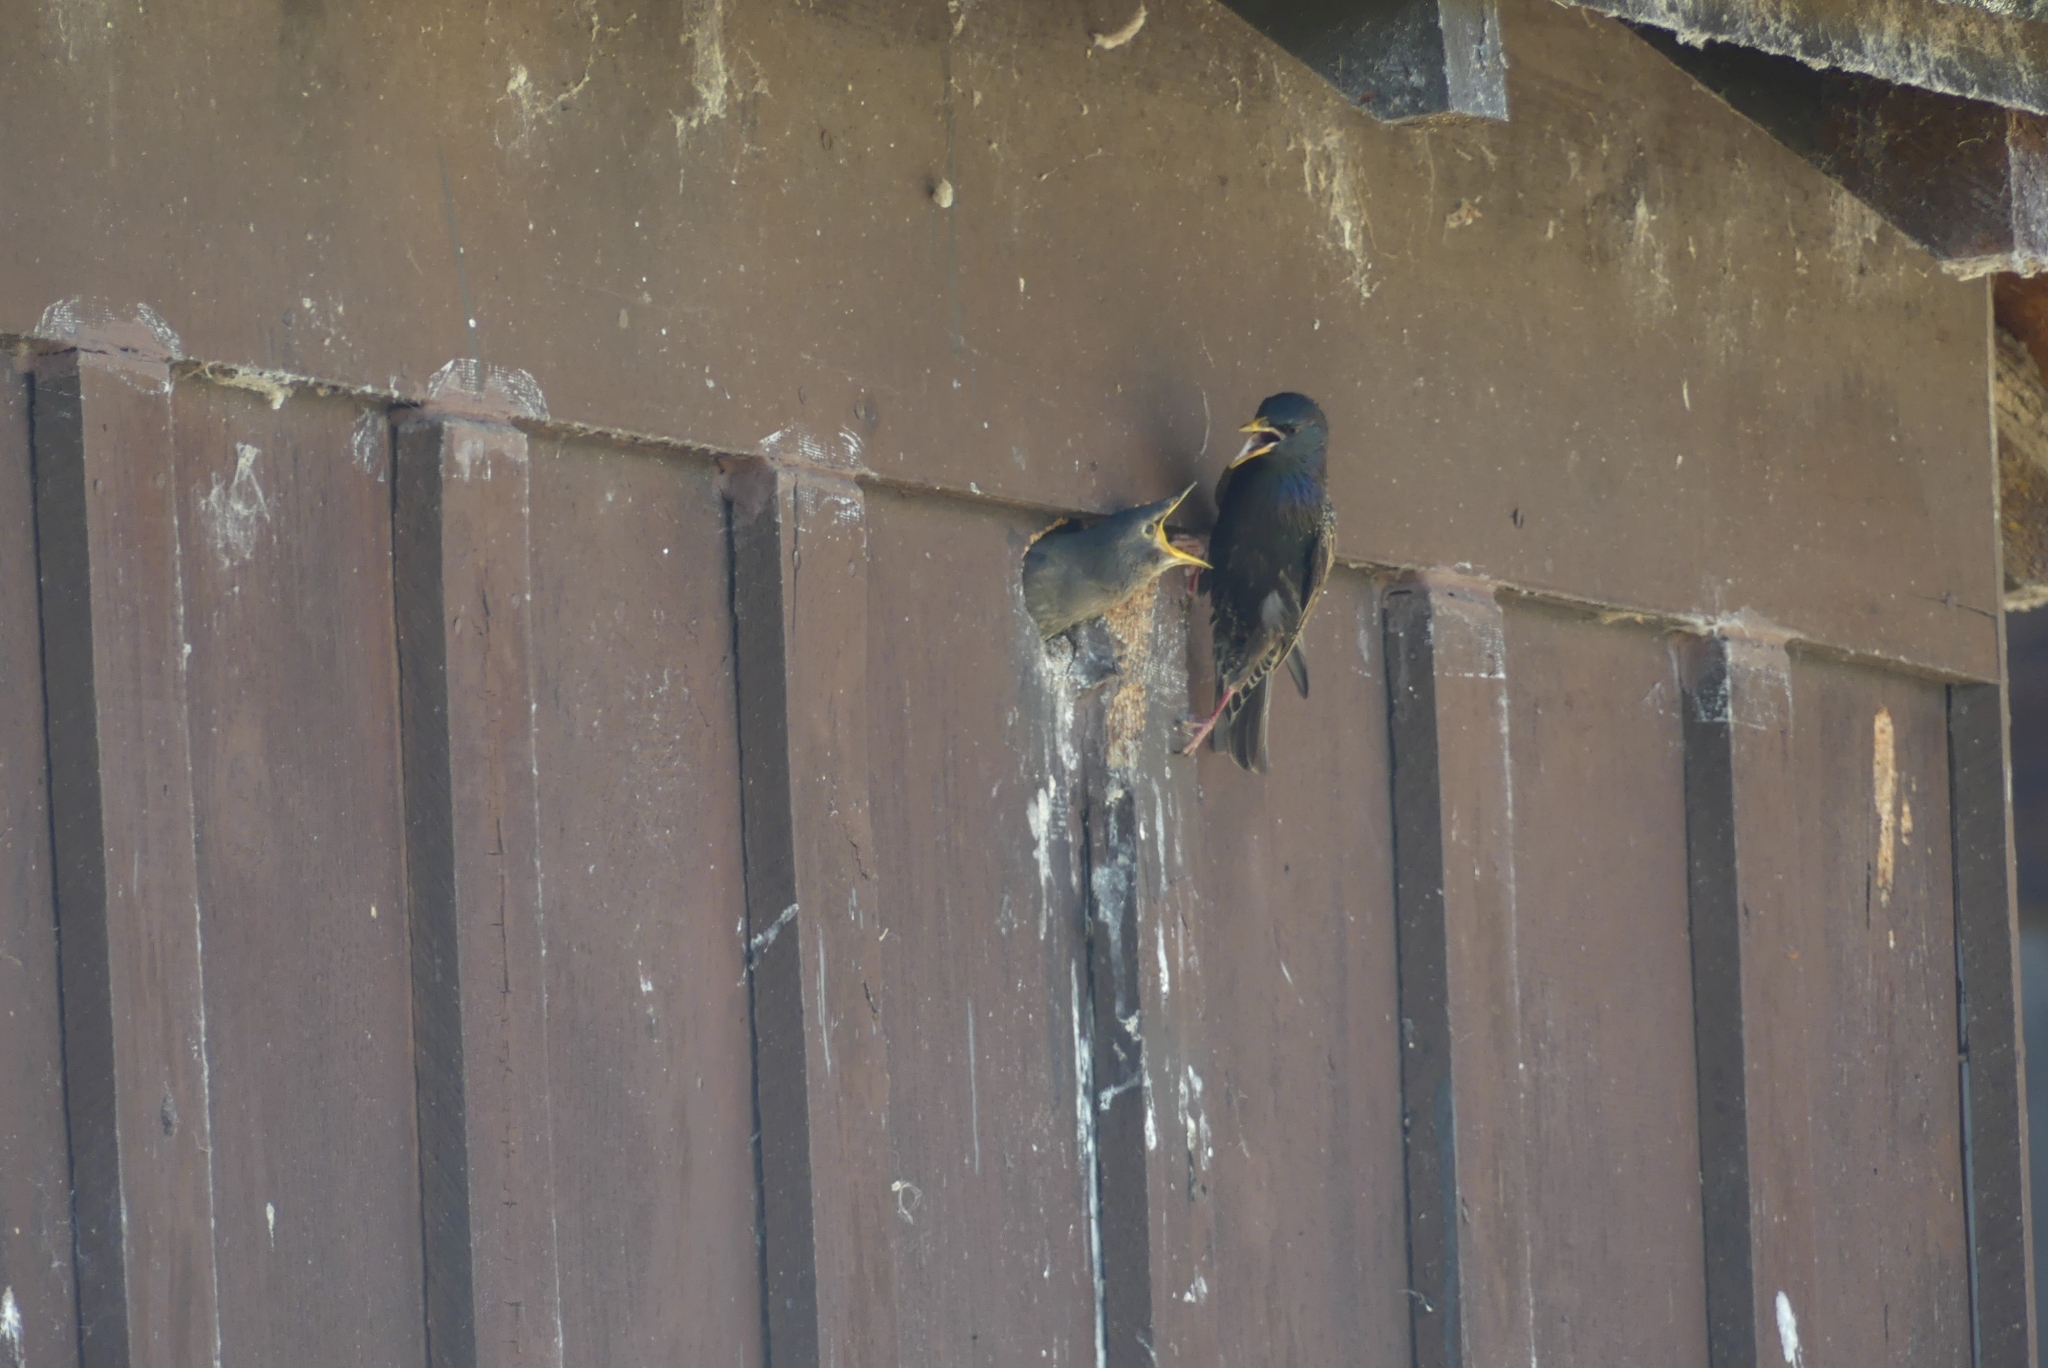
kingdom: Animalia
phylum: Chordata
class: Aves
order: Passeriformes
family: Sturnidae
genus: Sturnus
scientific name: Sturnus vulgaris
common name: Common starling
